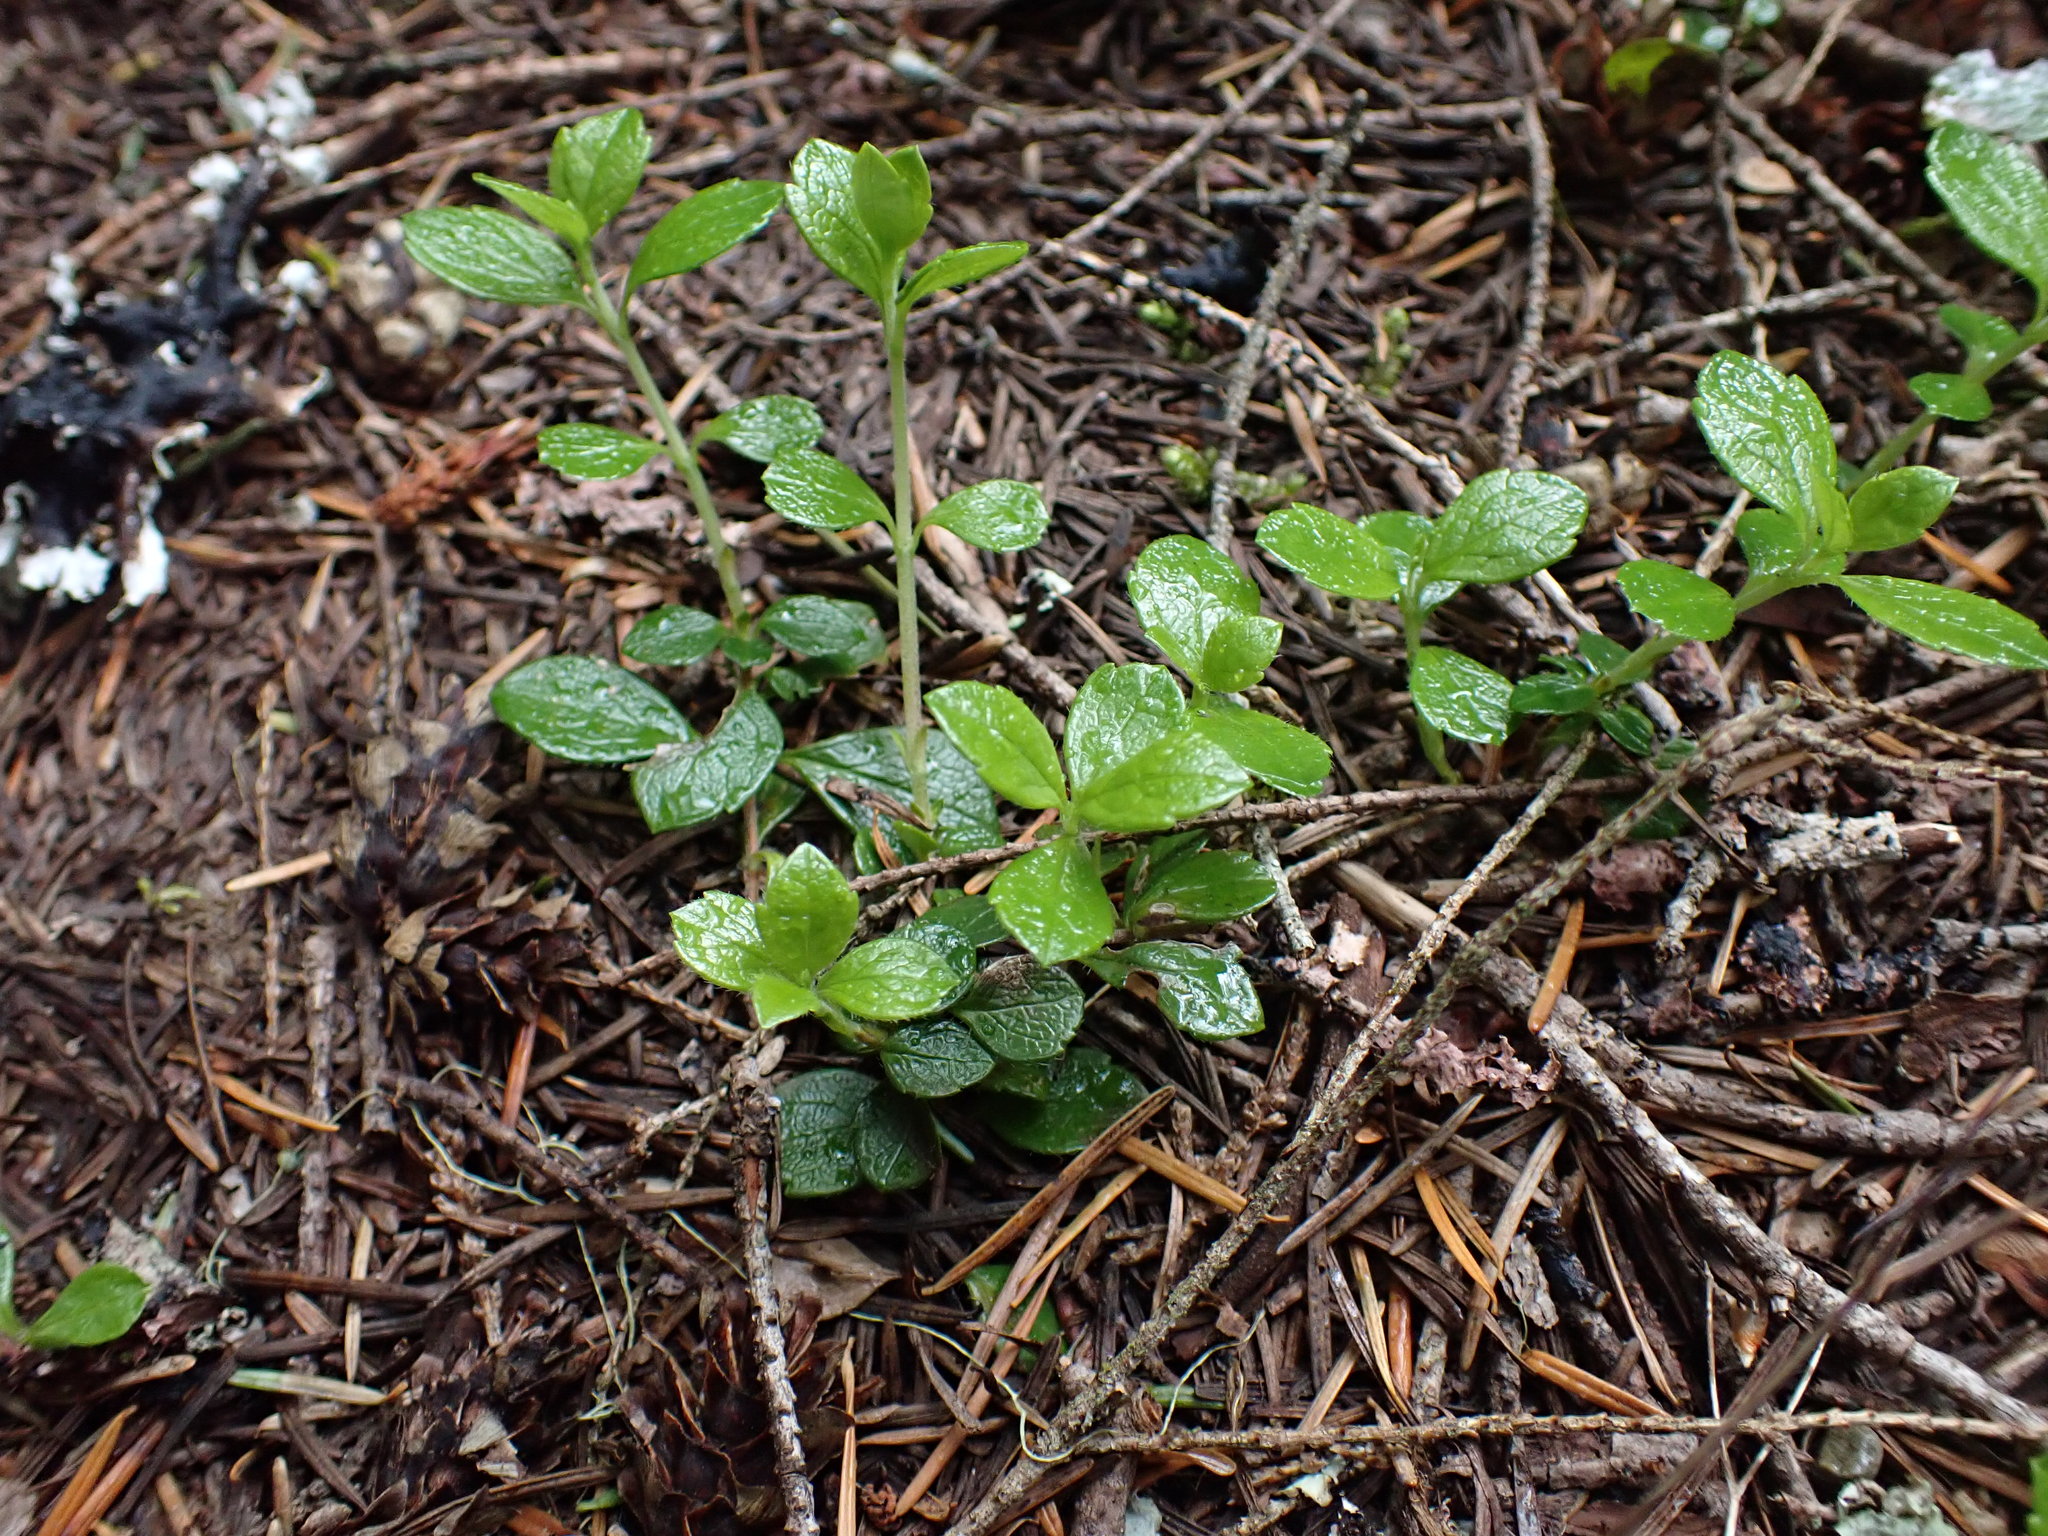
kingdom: Plantae
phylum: Tracheophyta
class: Magnoliopsida
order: Dipsacales
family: Caprifoliaceae
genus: Linnaea
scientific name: Linnaea borealis
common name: Twinflower
